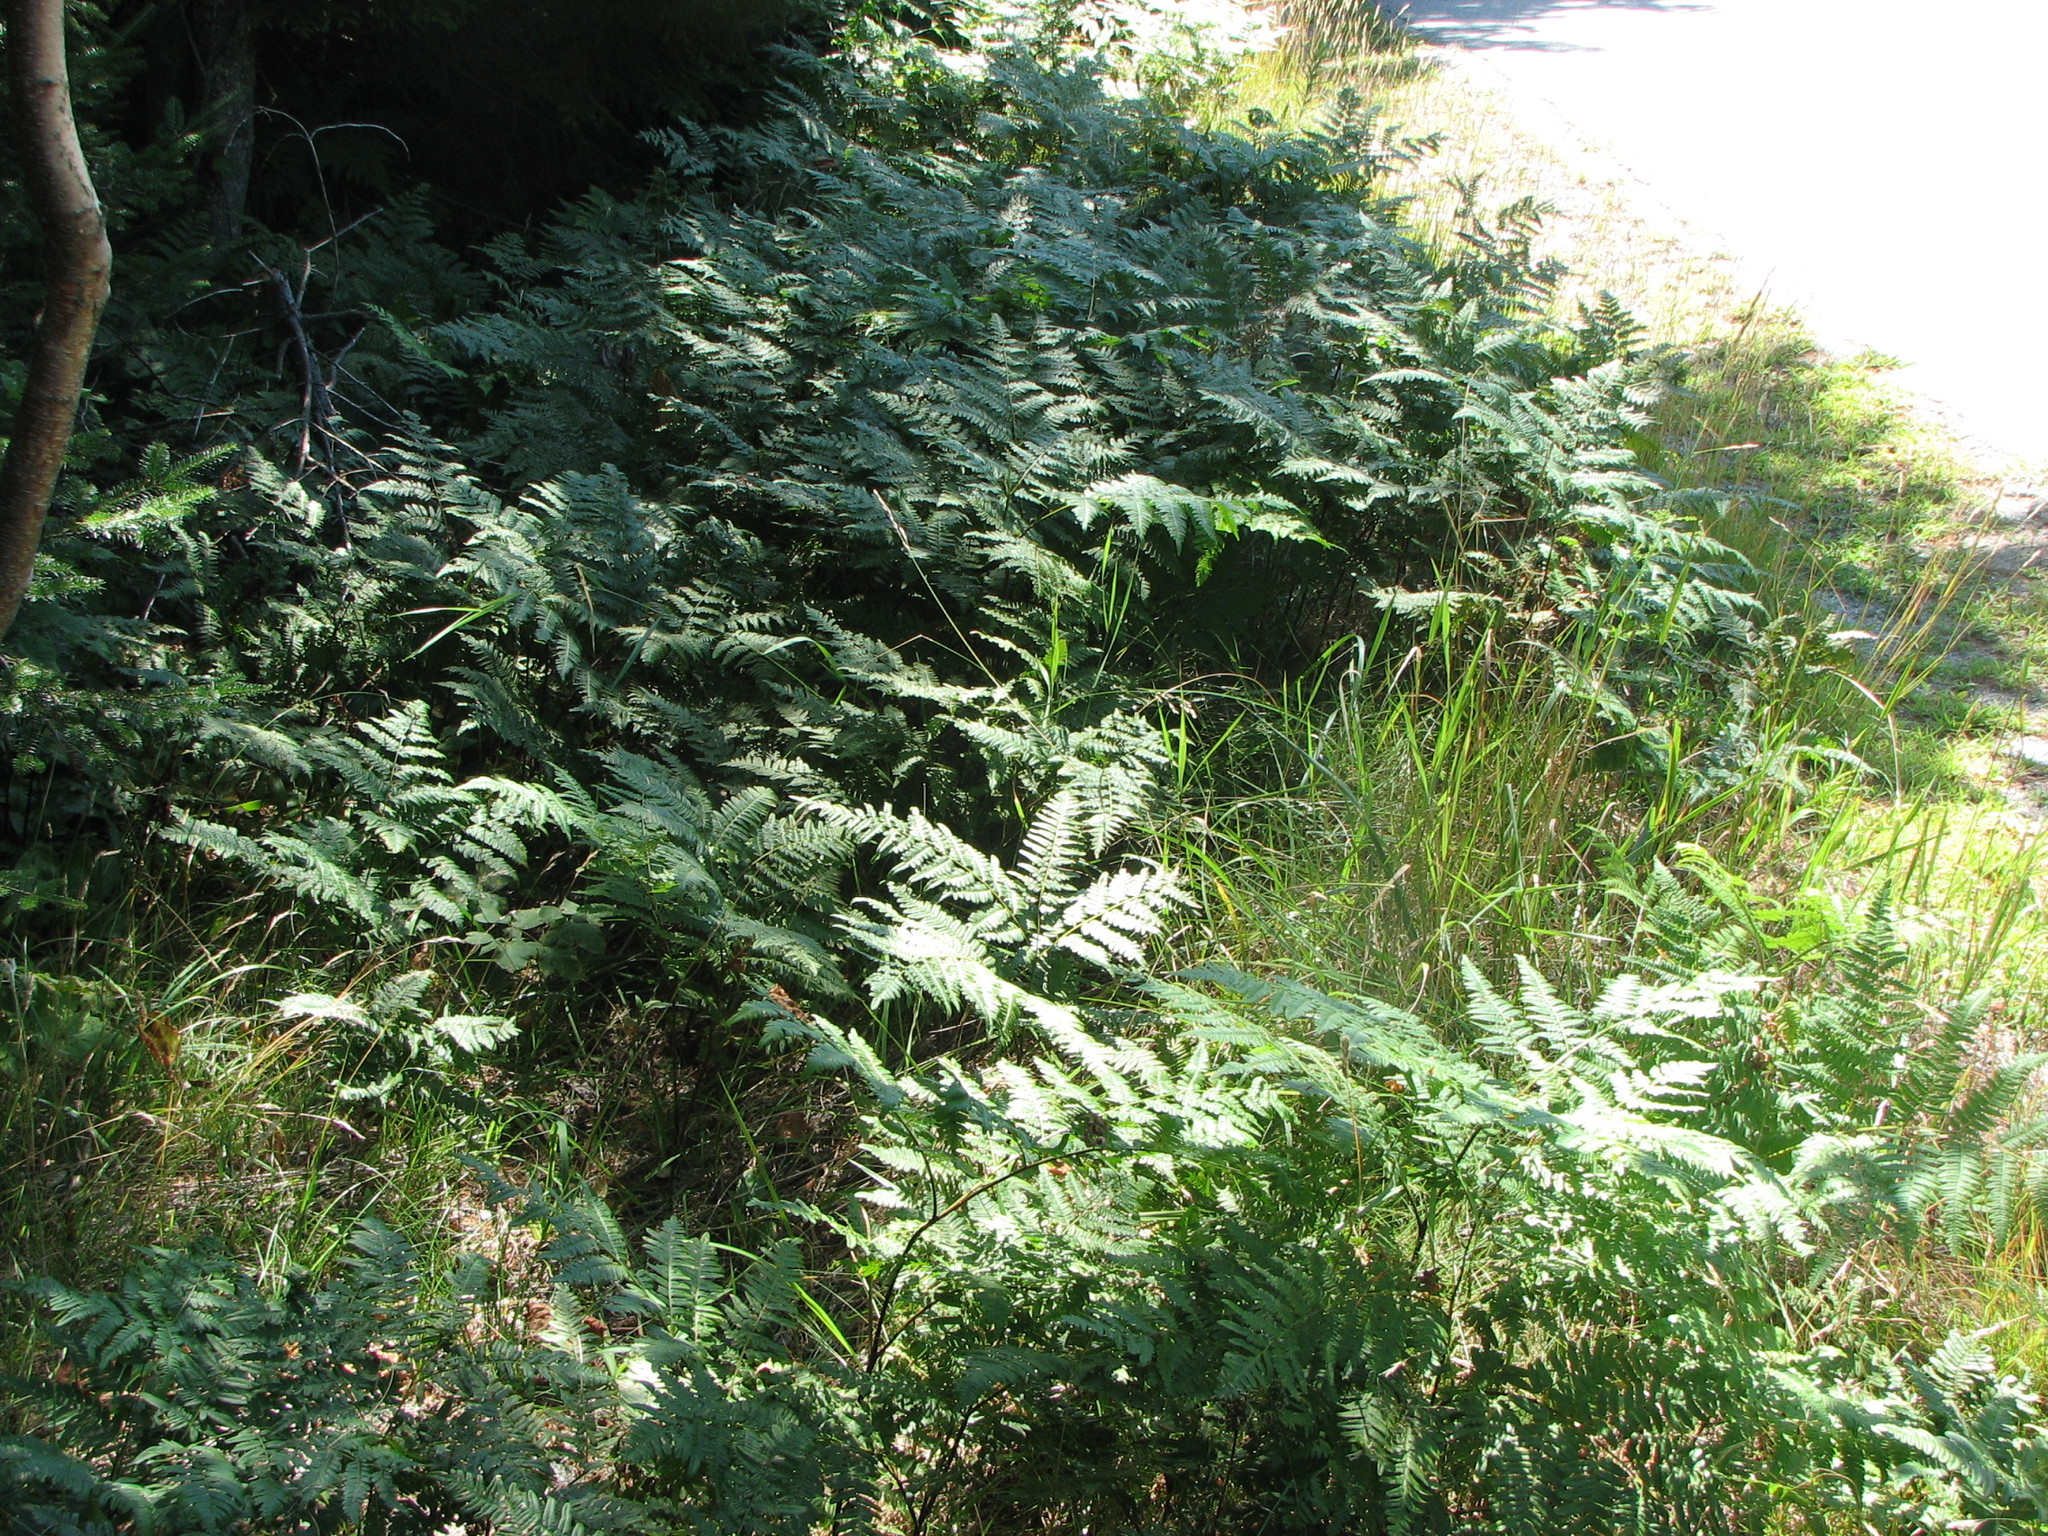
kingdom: Plantae
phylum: Tracheophyta
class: Polypodiopsida
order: Polypodiales
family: Dennstaedtiaceae
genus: Pteridium
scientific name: Pteridium aquilinum
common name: Bracken
